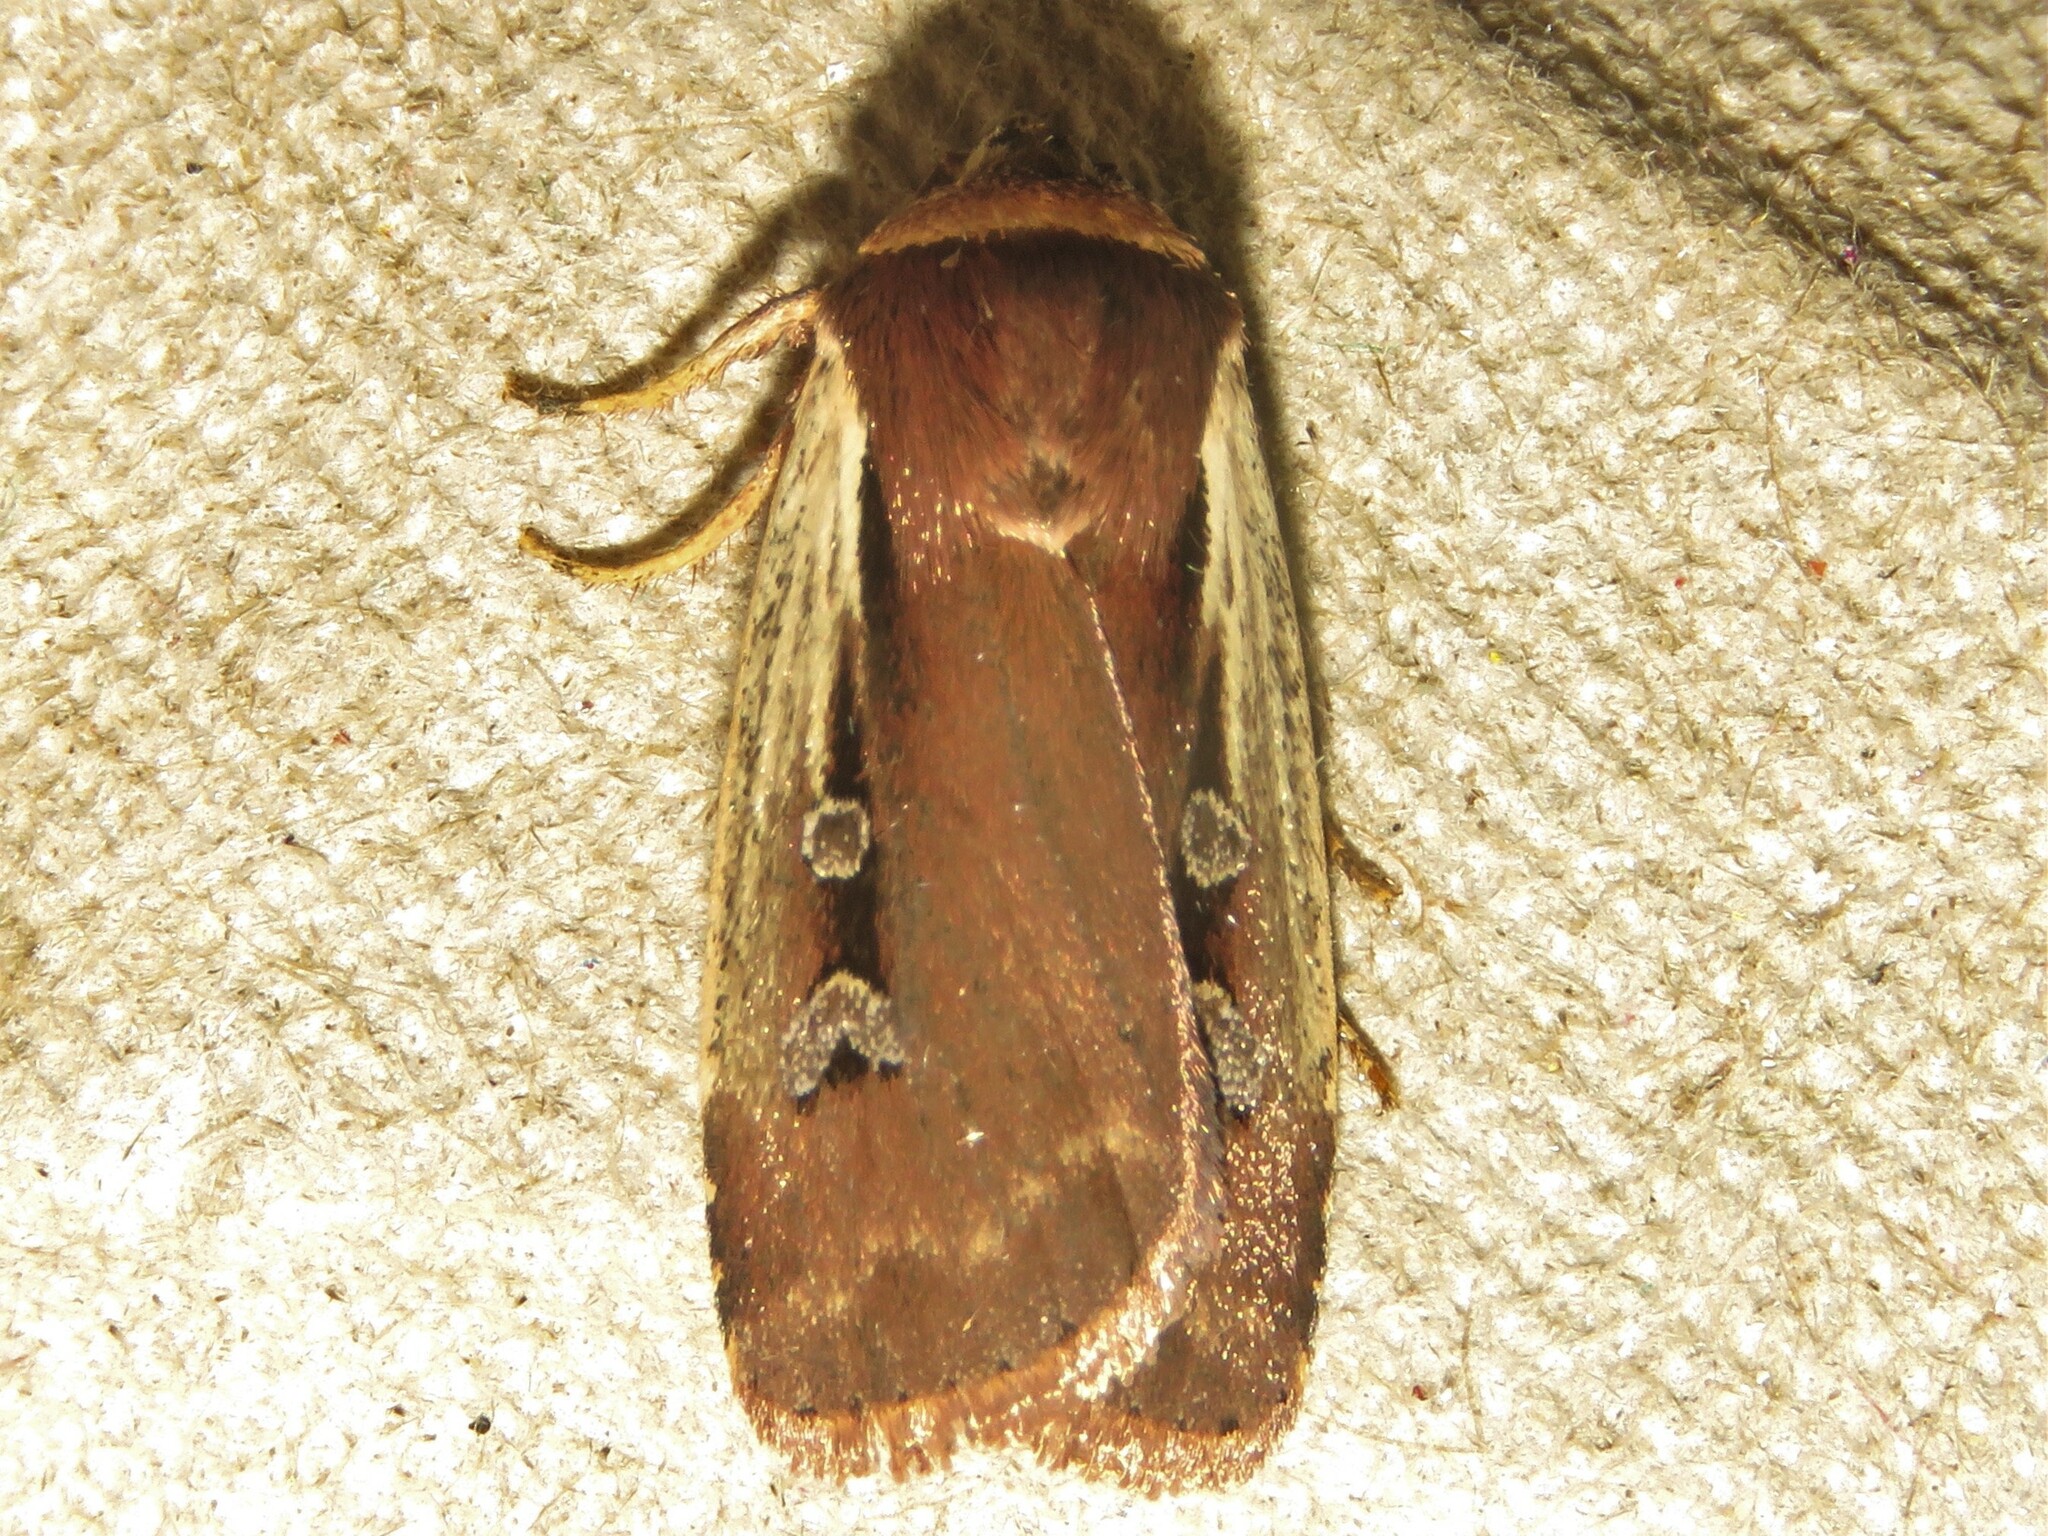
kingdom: Animalia
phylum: Arthropoda
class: Insecta
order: Lepidoptera
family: Noctuidae
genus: Ochropleura
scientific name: Ochropleura implecta
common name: Flame-shouldered dart
